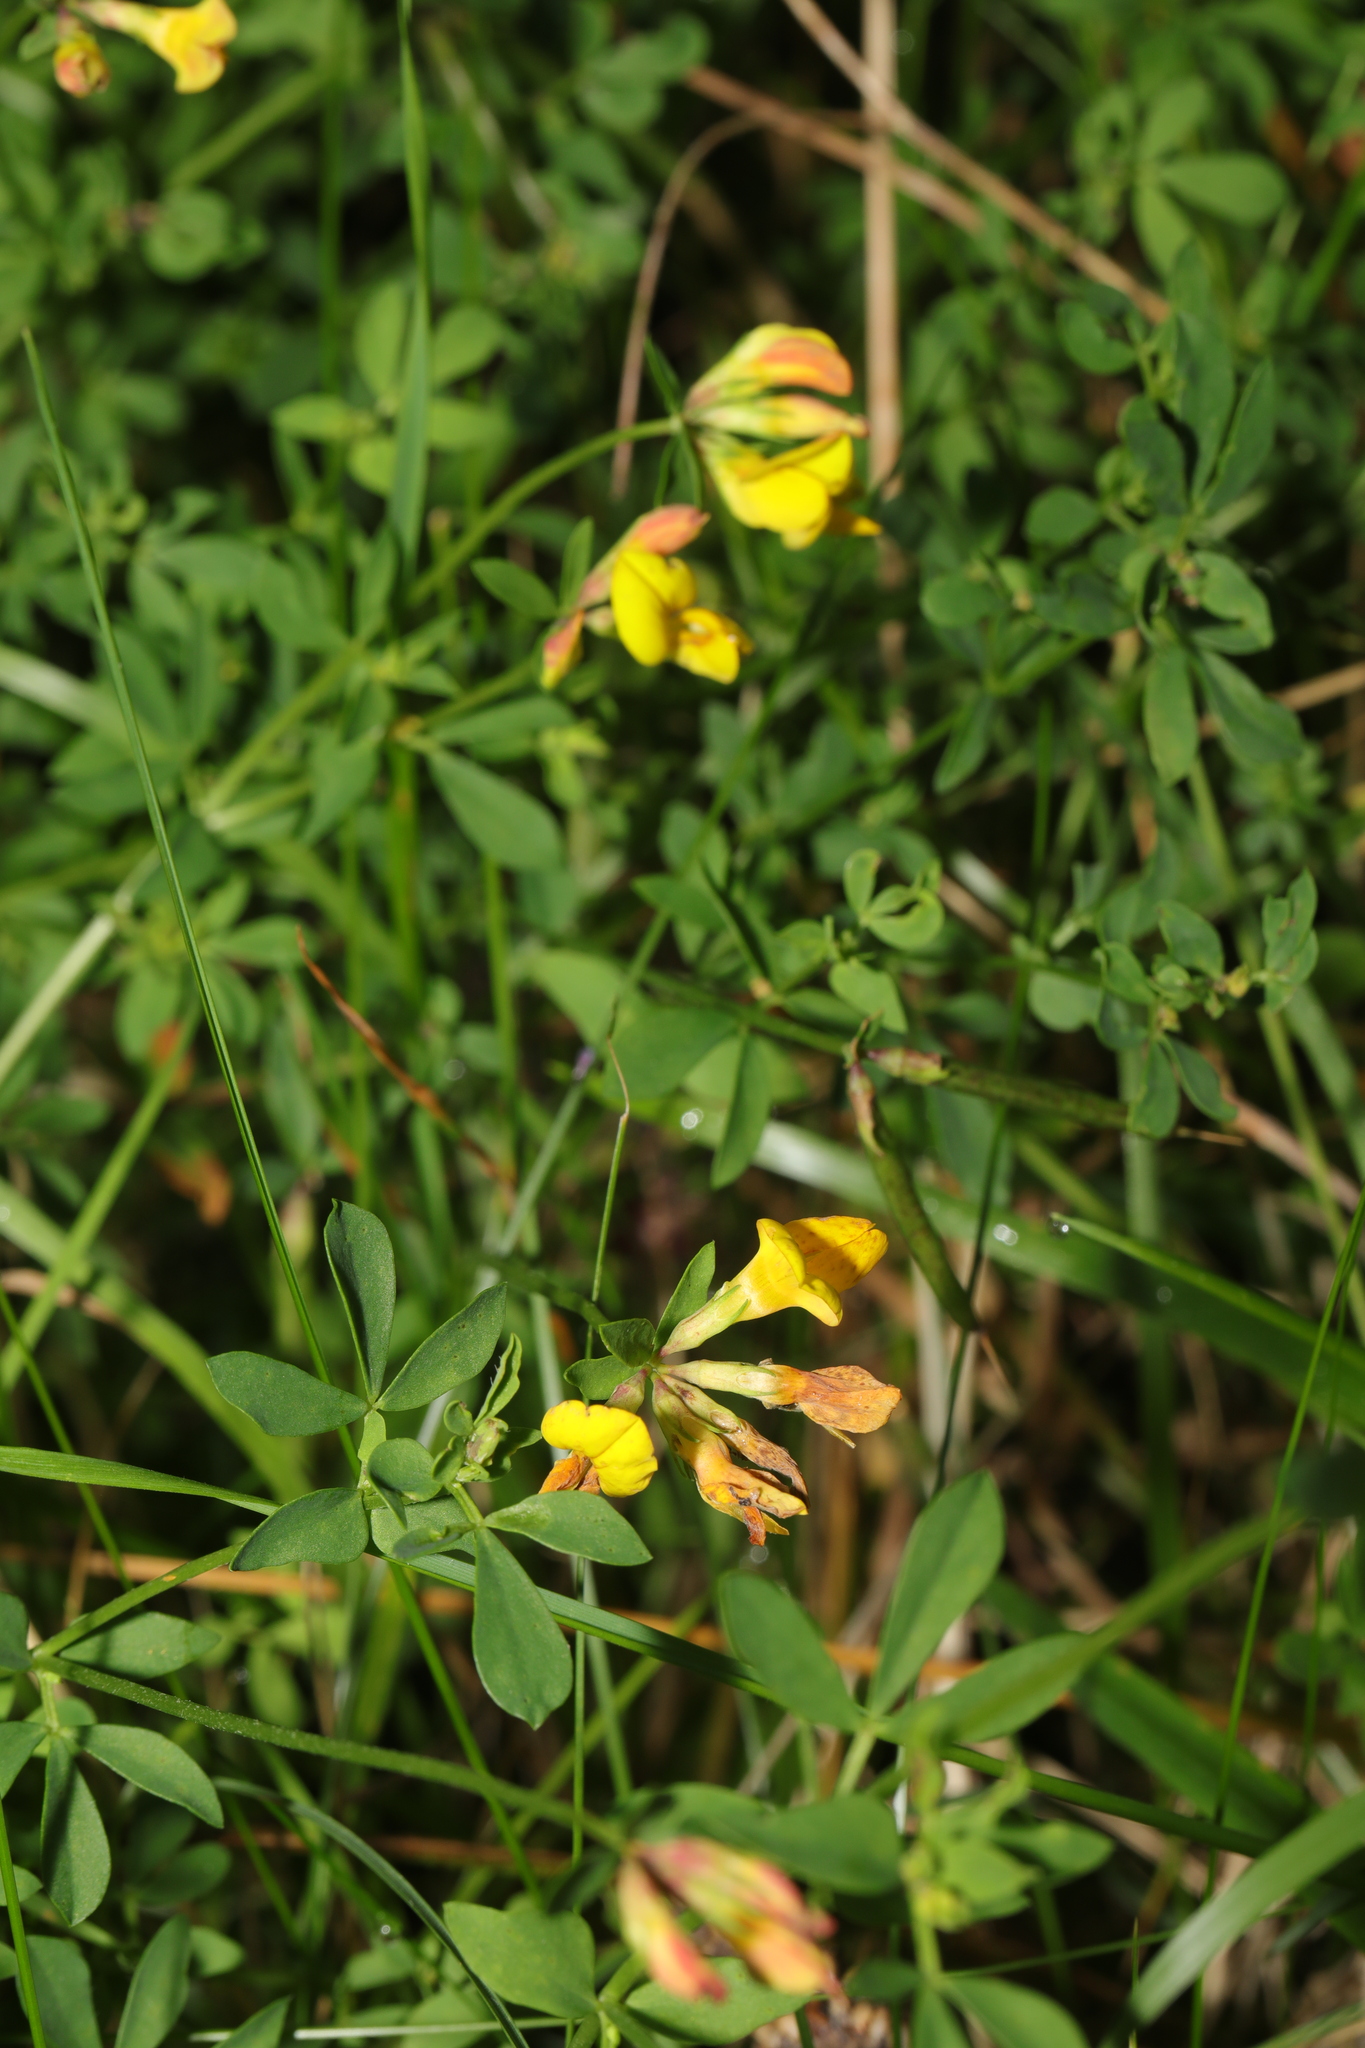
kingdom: Plantae
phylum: Tracheophyta
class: Magnoliopsida
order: Fabales
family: Fabaceae
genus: Lotus
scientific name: Lotus corniculatus
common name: Common bird's-foot-trefoil
